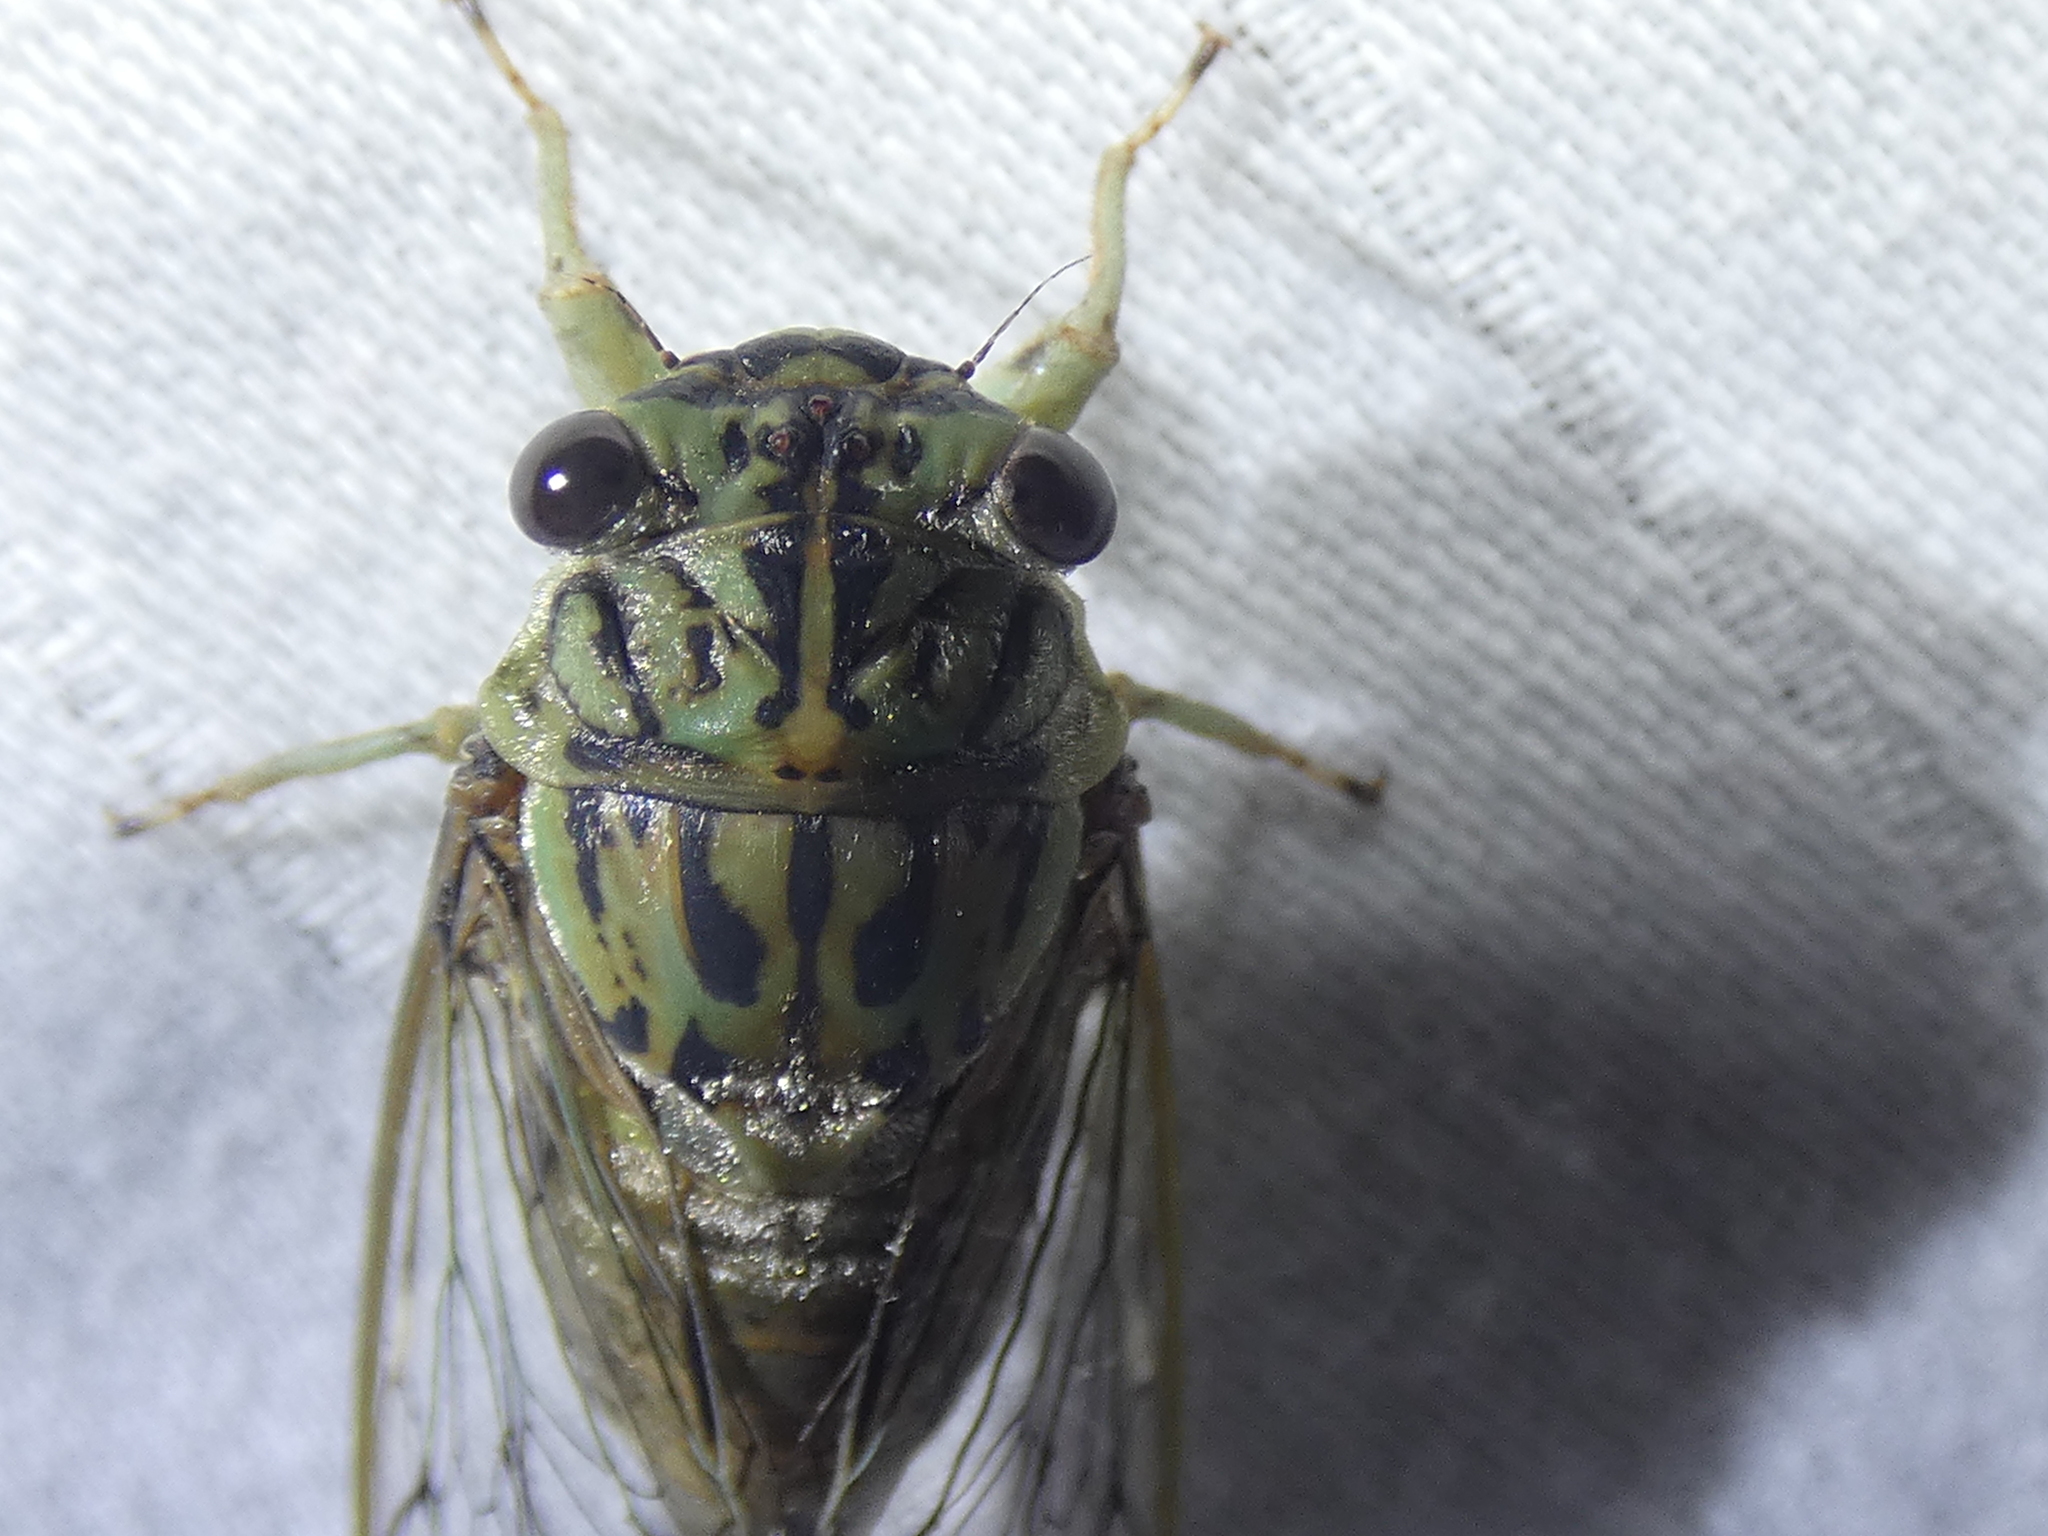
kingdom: Animalia
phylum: Arthropoda
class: Insecta
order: Hemiptera
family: Cicadidae
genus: Neocicada
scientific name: Neocicada hieroglyphica
